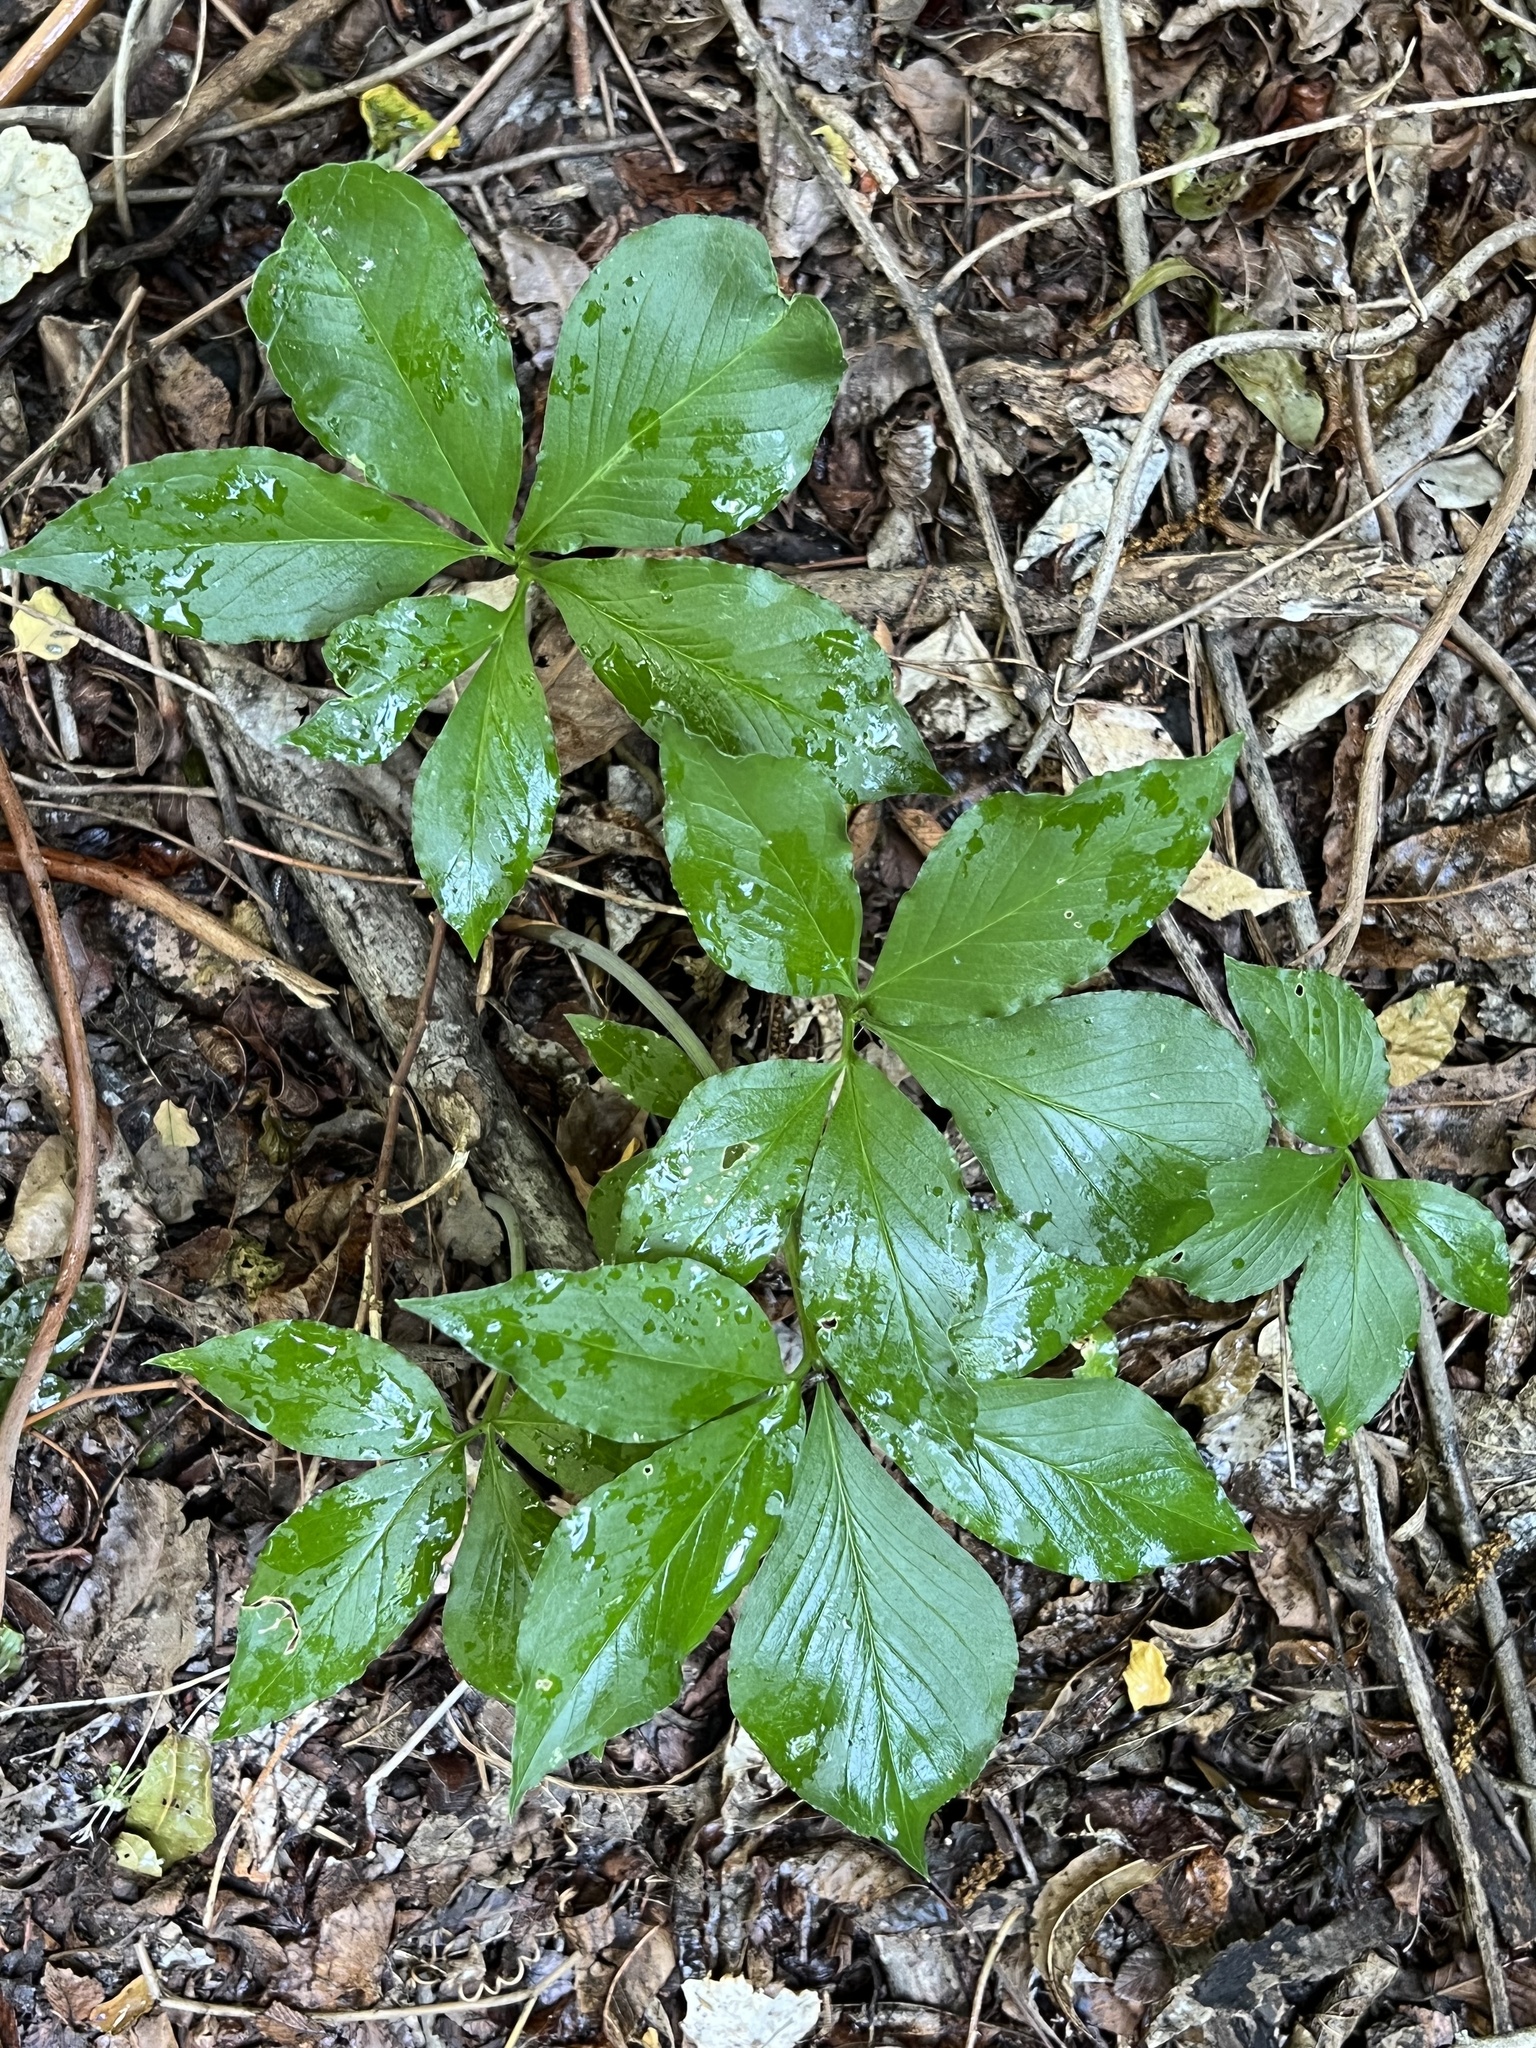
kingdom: Plantae
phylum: Tracheophyta
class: Liliopsida
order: Alismatales
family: Araceae
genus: Arisaema
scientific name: Arisaema dracontium
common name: Dragon-arum
